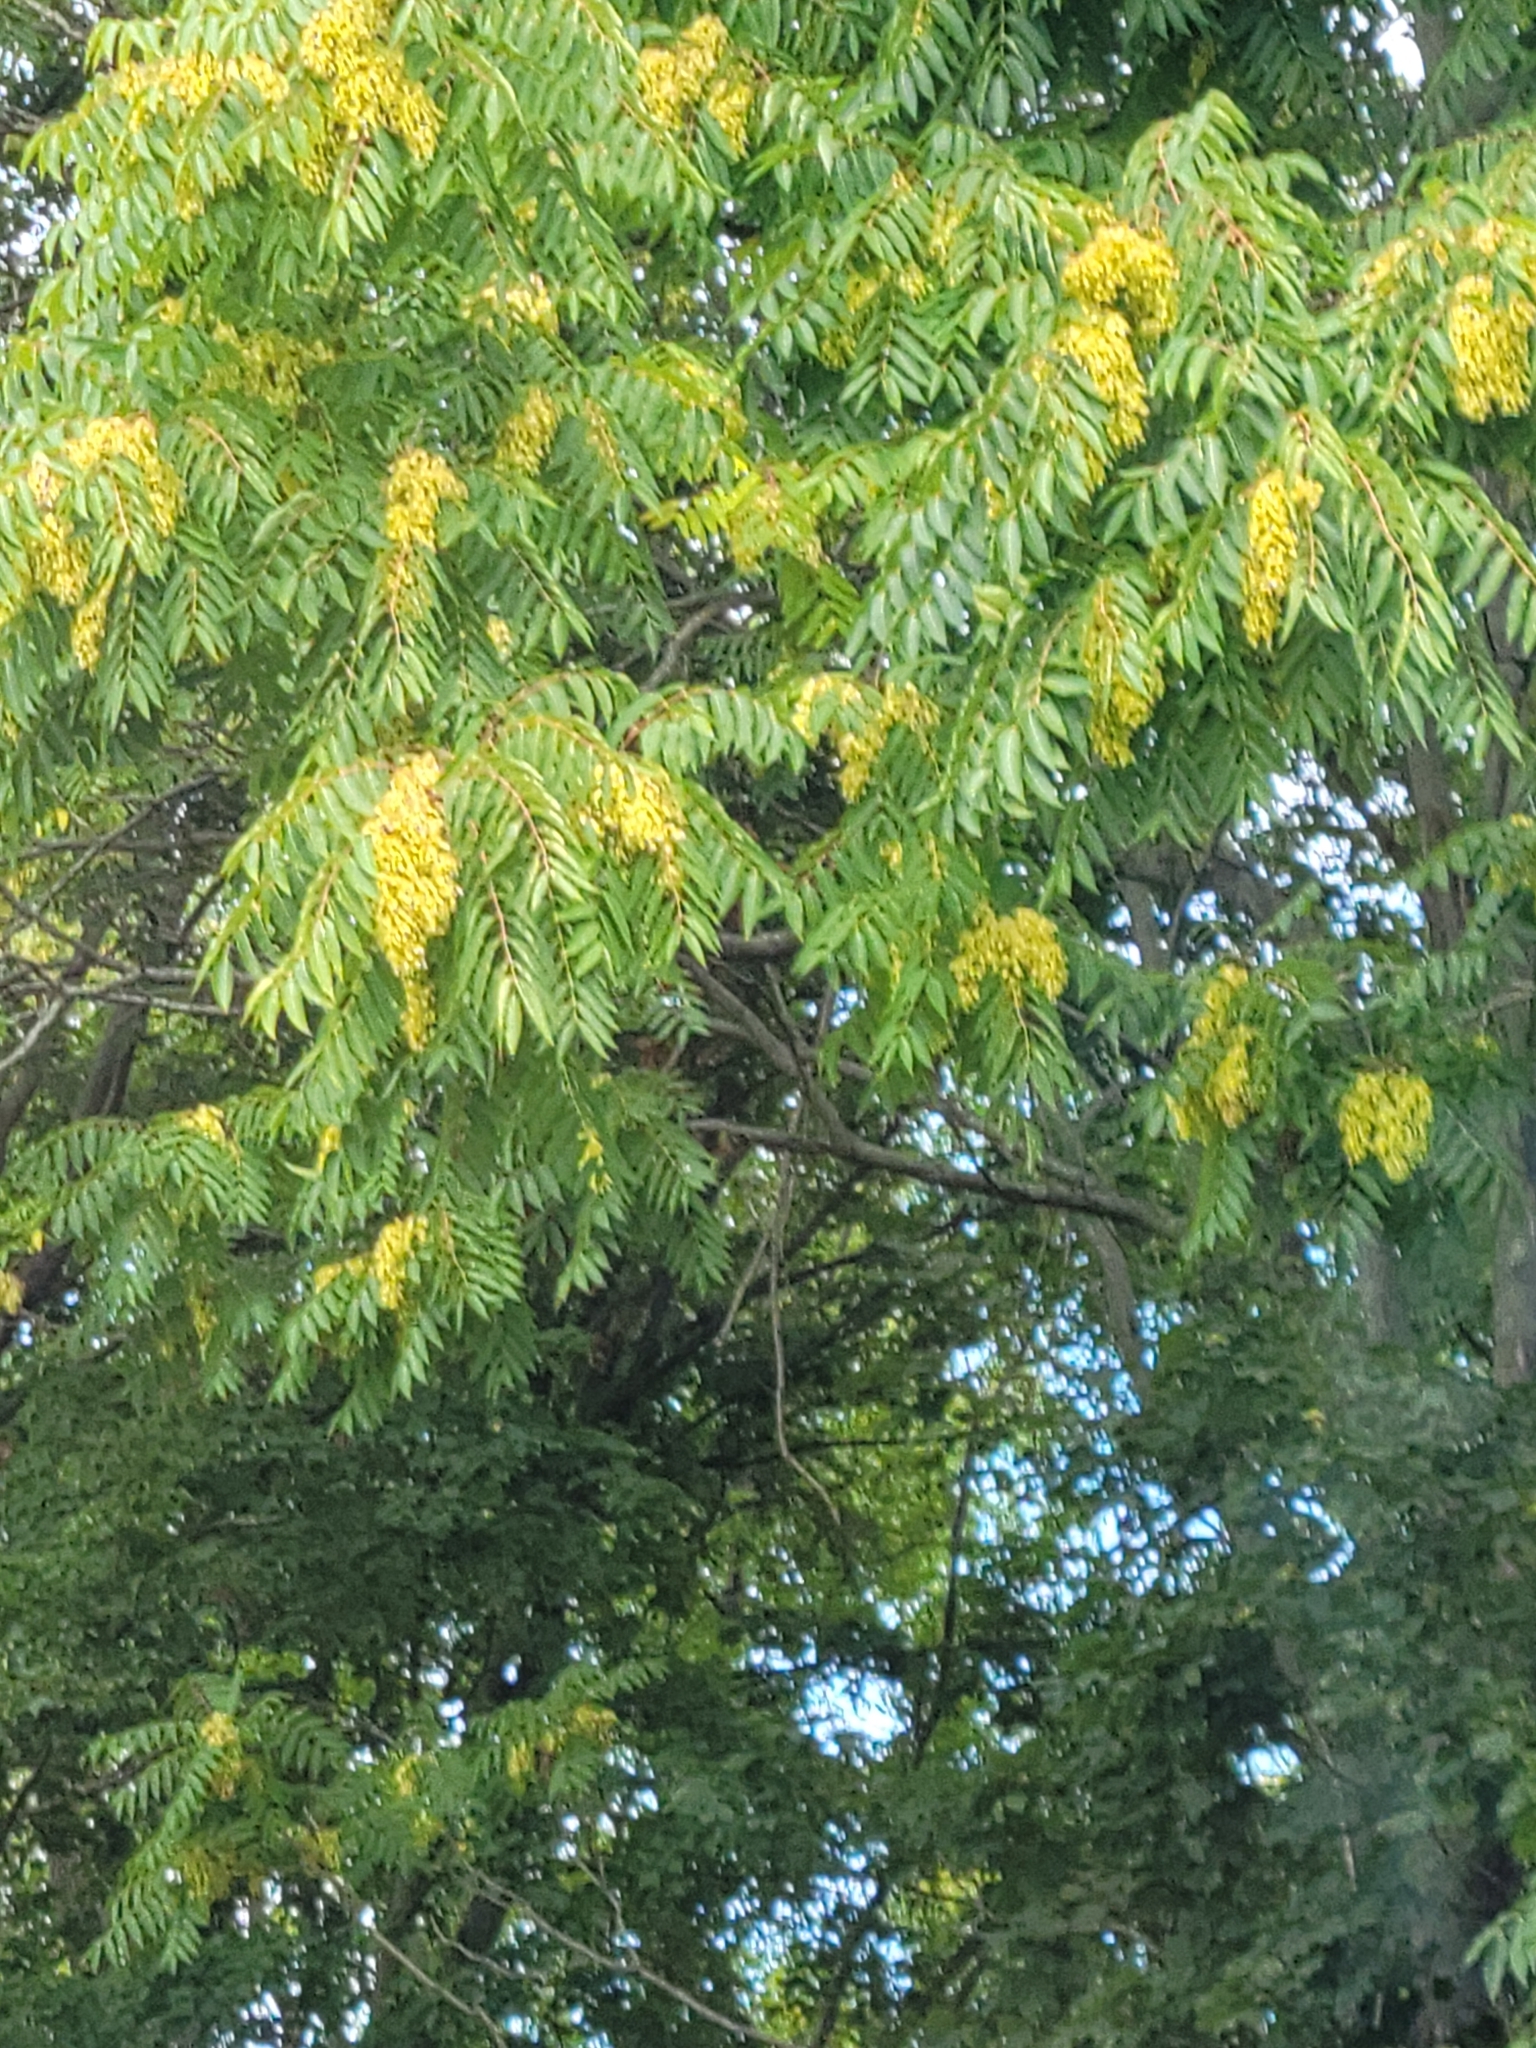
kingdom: Plantae
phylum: Tracheophyta
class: Magnoliopsida
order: Sapindales
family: Simaroubaceae
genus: Ailanthus
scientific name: Ailanthus altissima
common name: Tree-of-heaven
